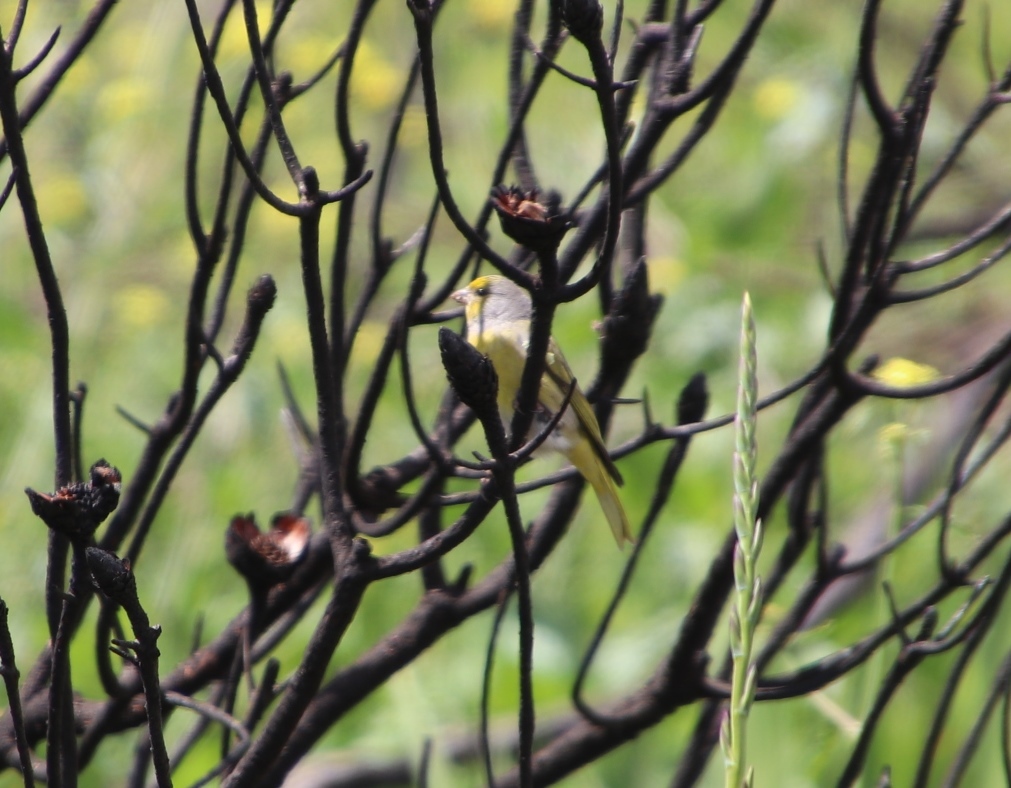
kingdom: Animalia
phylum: Chordata
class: Aves
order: Passeriformes
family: Fringillidae
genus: Serinus
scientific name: Serinus canicollis
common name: Cape canary
